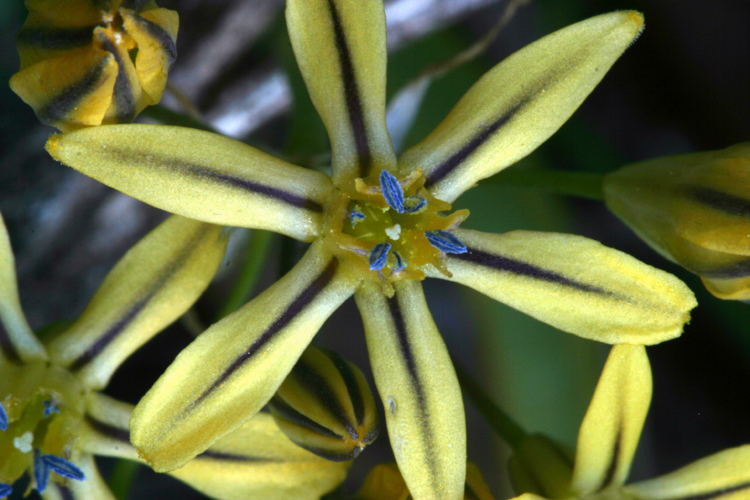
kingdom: Plantae
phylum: Tracheophyta
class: Liliopsida
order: Asparagales
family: Asparagaceae
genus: Triteleia
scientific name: Triteleia ixioides
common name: Yellow-brodiaea
